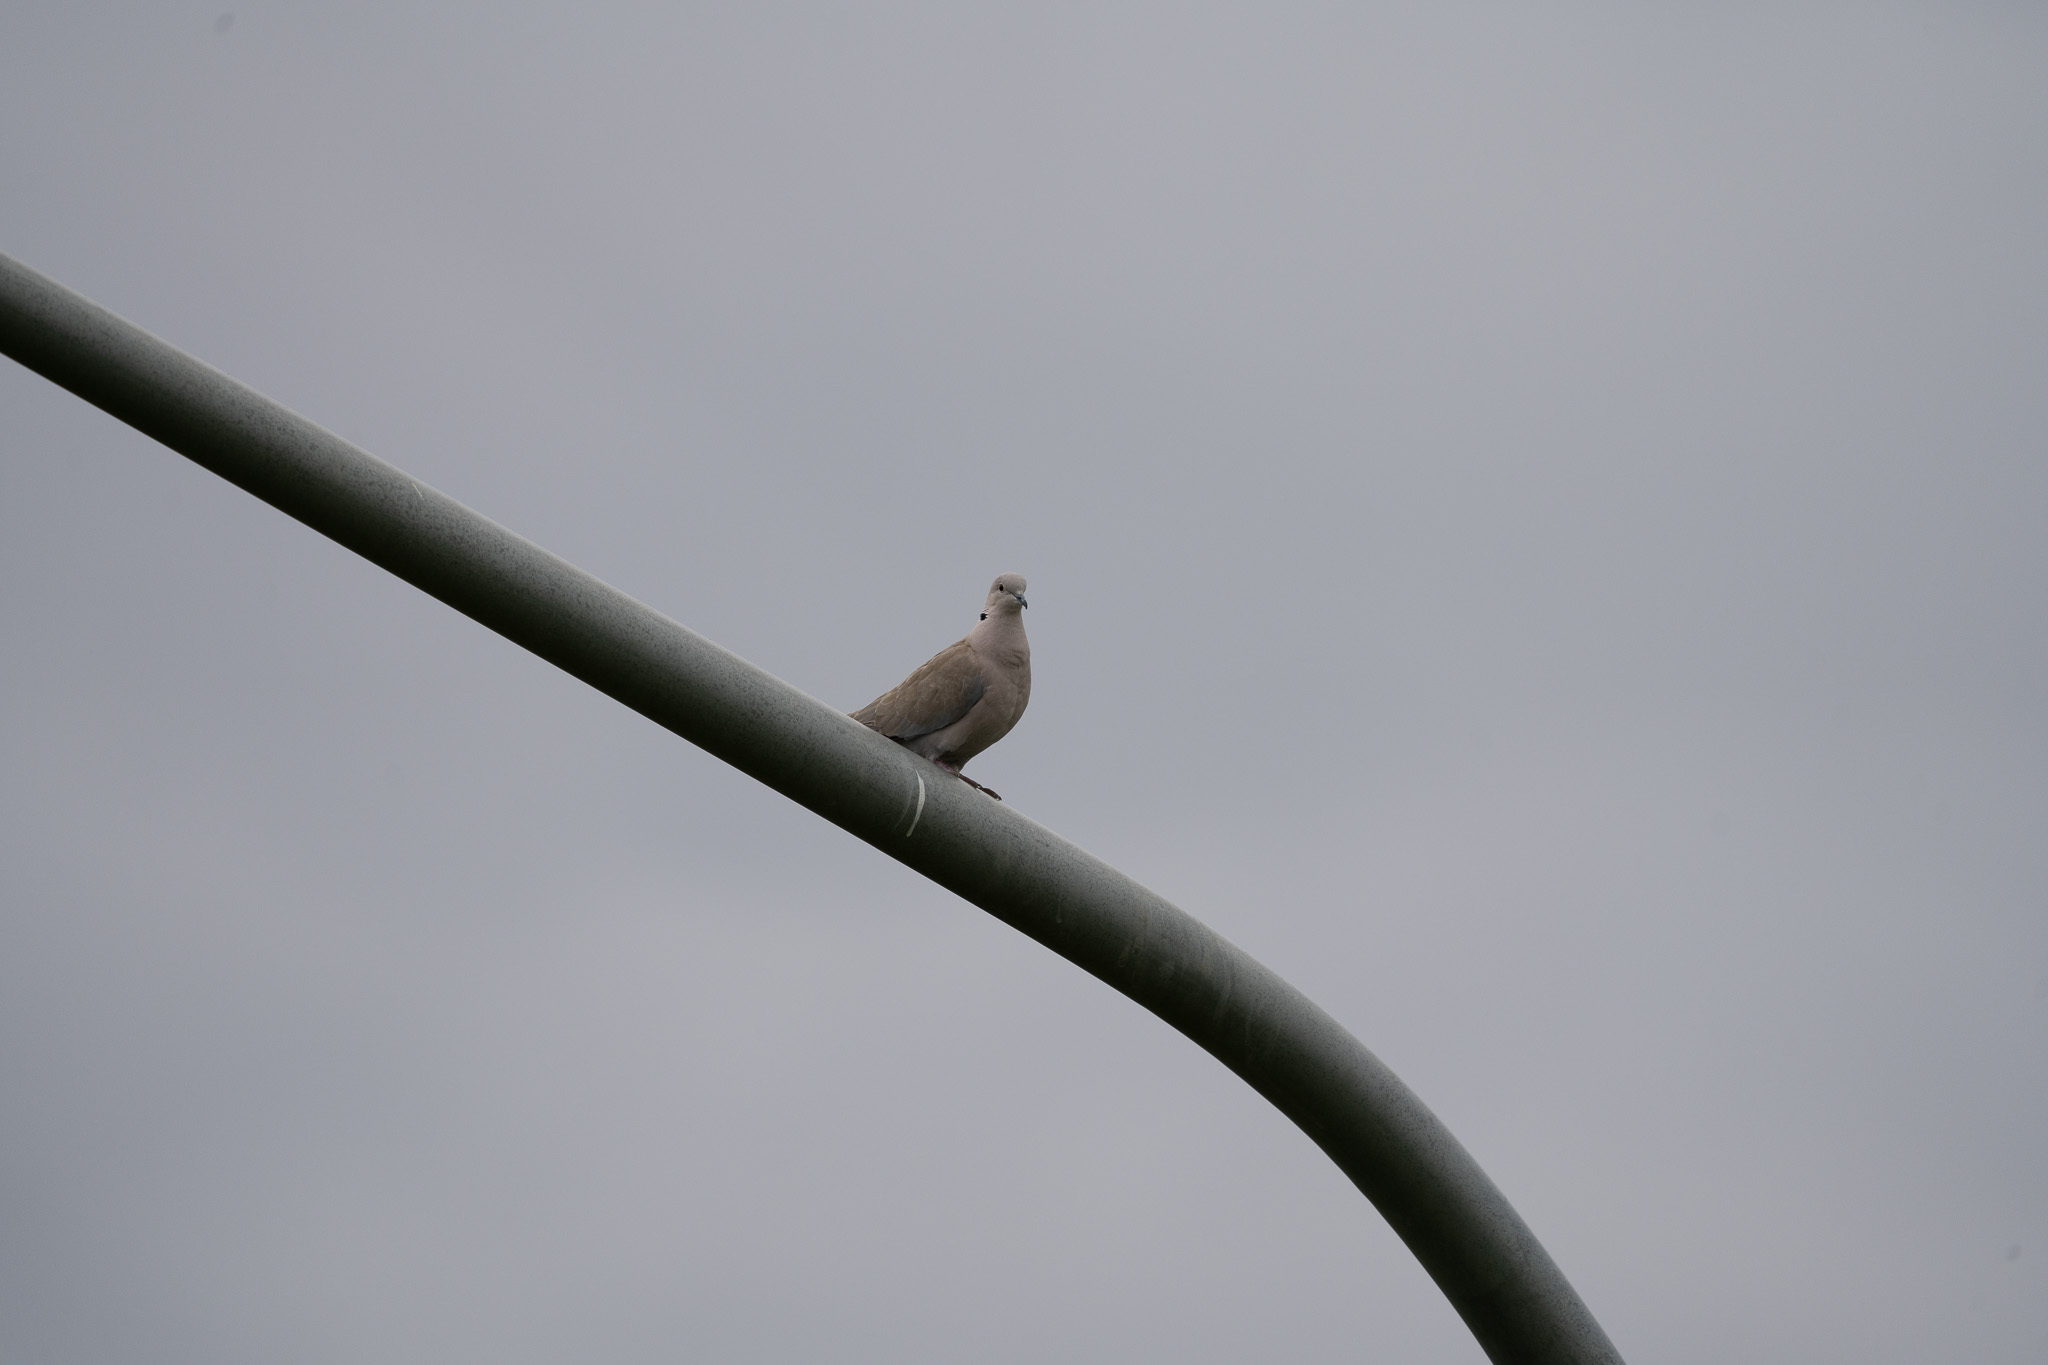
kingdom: Animalia
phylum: Chordata
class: Aves
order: Columbiformes
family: Columbidae
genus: Streptopelia
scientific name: Streptopelia decaocto
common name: Eurasian collared dove
